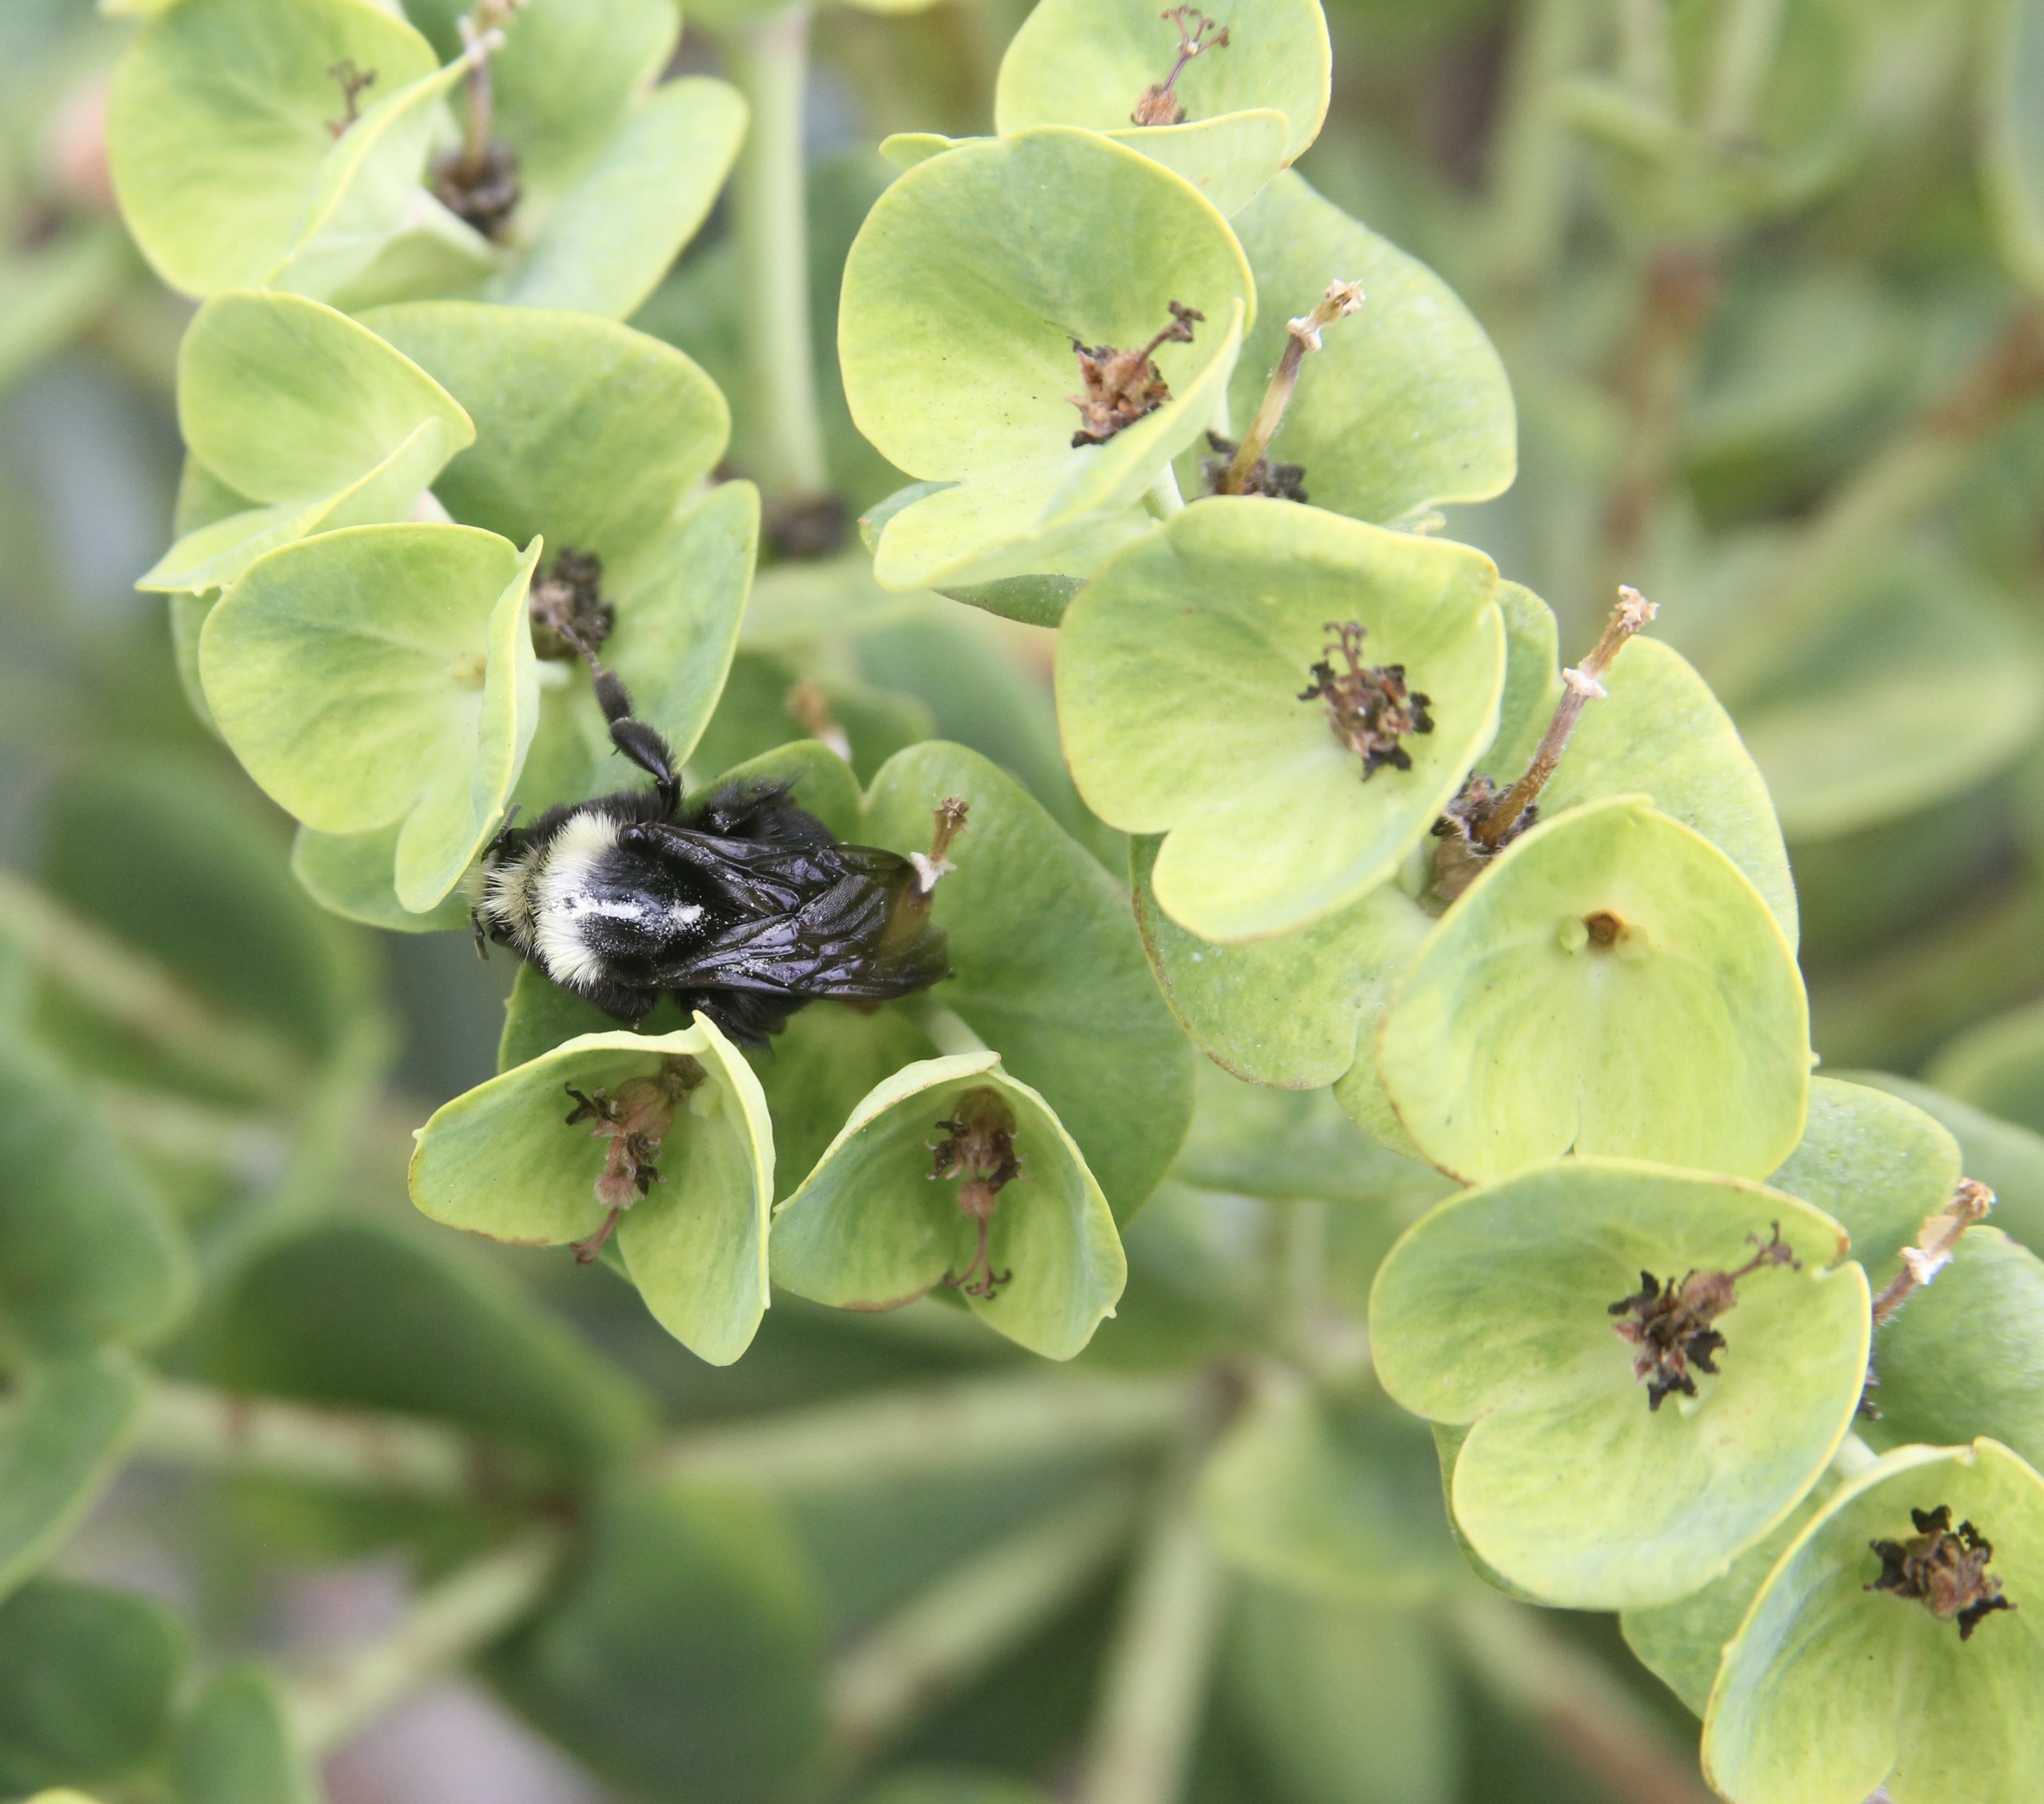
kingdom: Animalia
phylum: Arthropoda
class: Insecta
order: Hymenoptera
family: Apidae
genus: Bombus
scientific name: Bombus vosnesenskii
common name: Vosnesensky bumble bee
